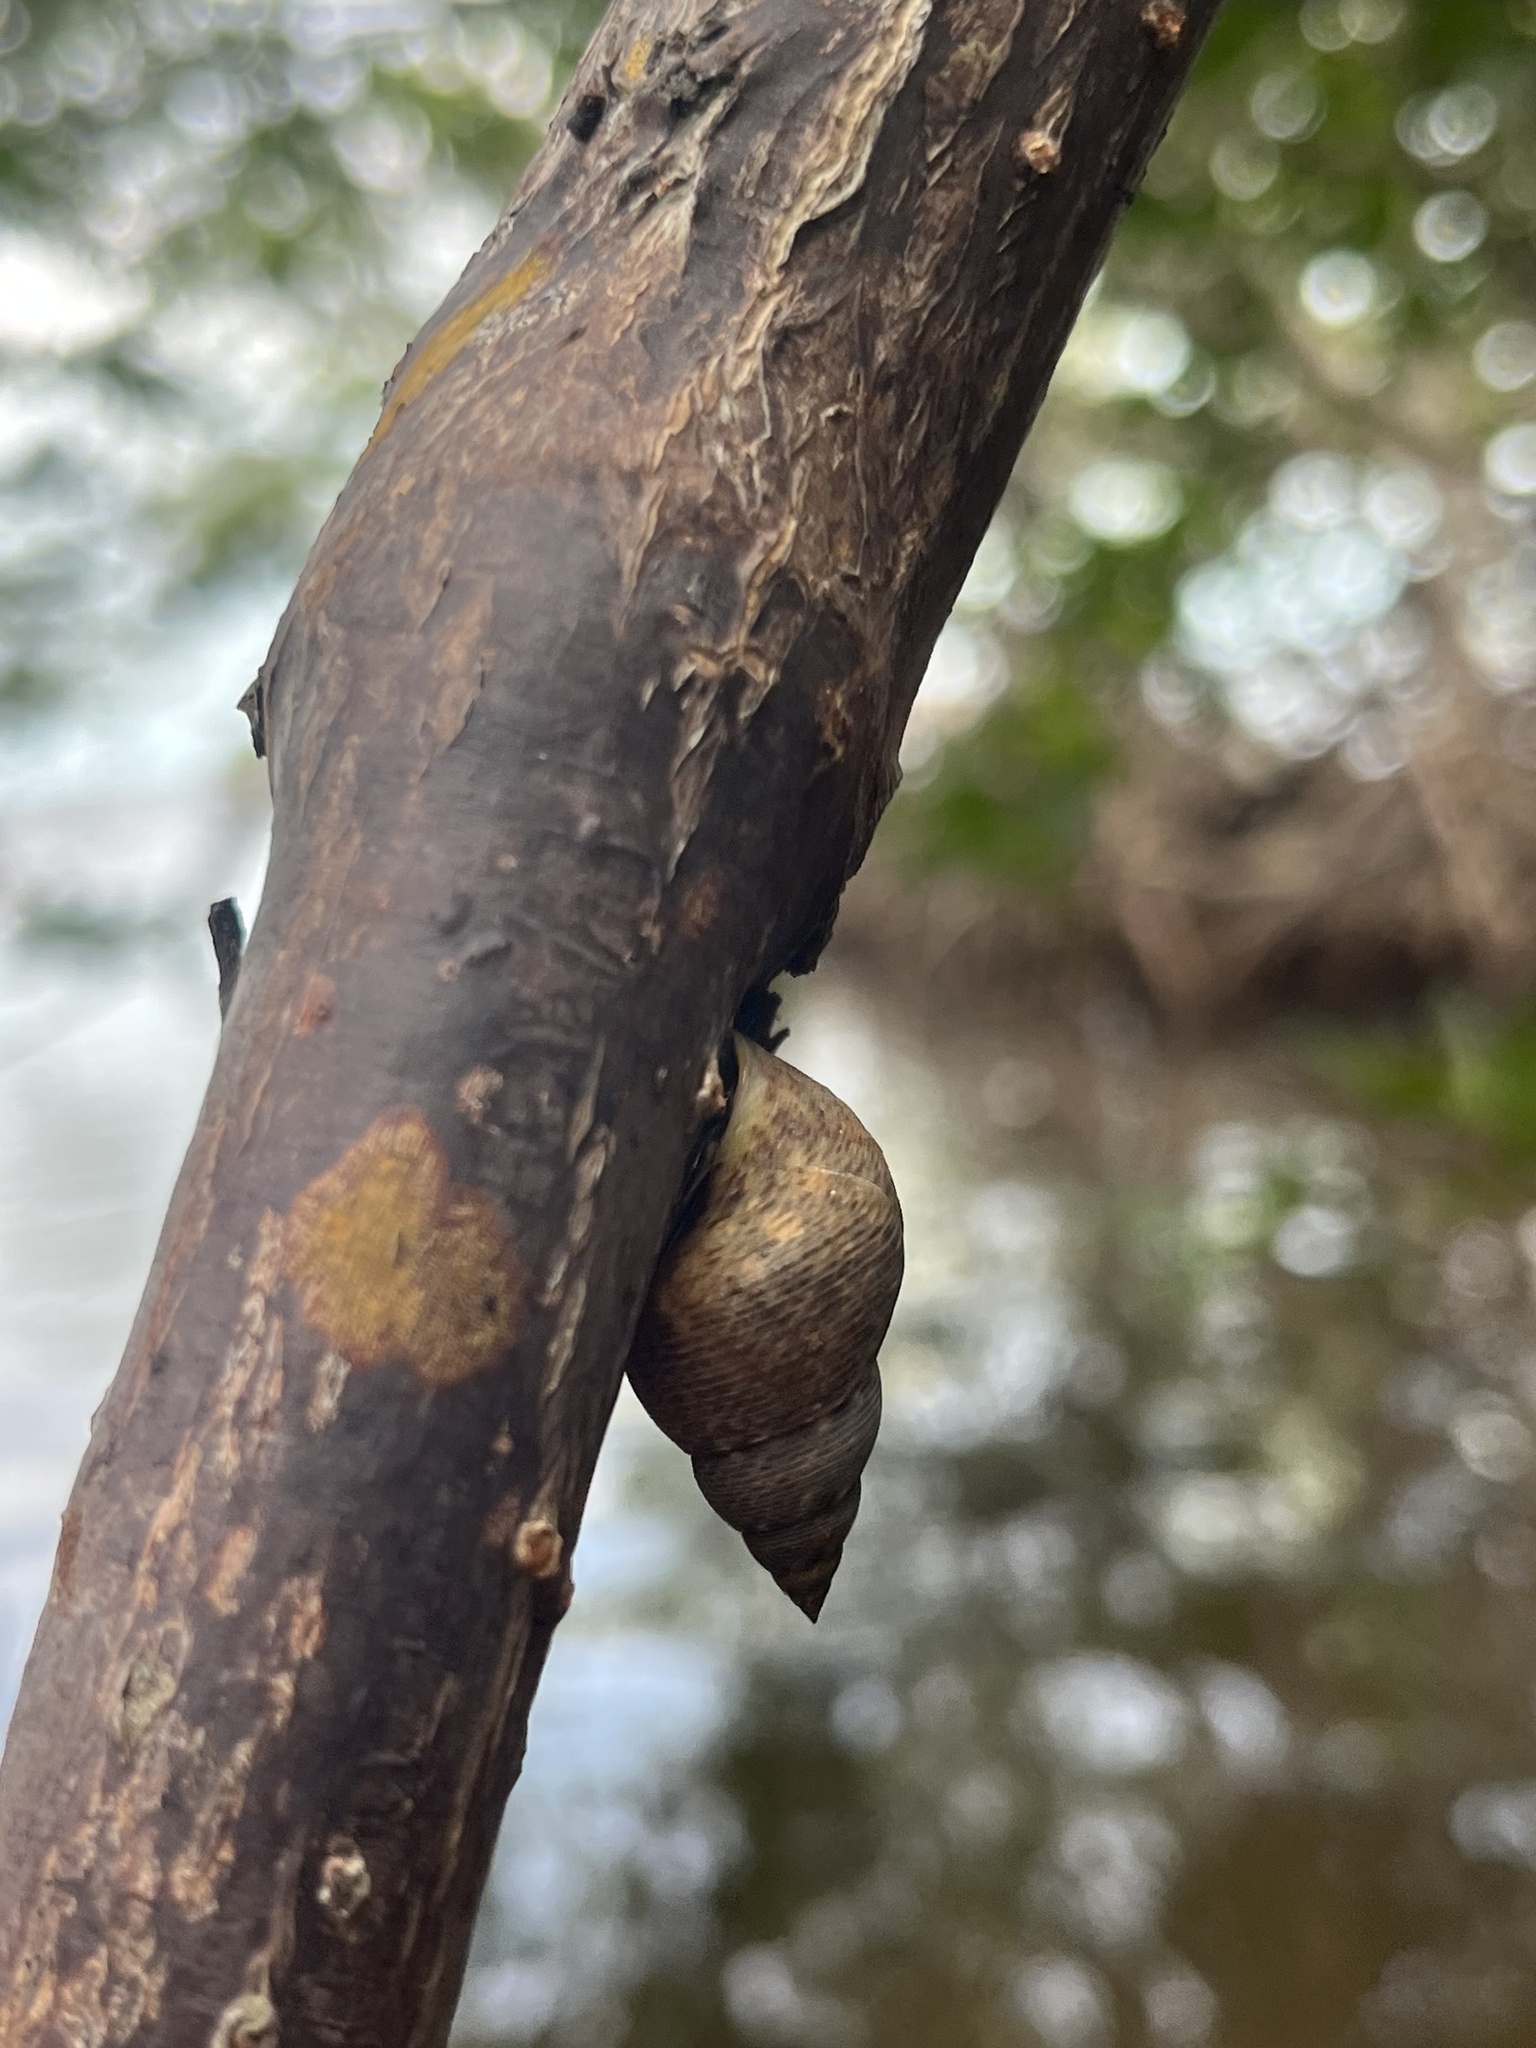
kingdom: Animalia
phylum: Mollusca
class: Gastropoda
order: Littorinimorpha
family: Littorinidae
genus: Littoraria
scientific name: Littoraria angulifera
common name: Mangrove periwinkle
